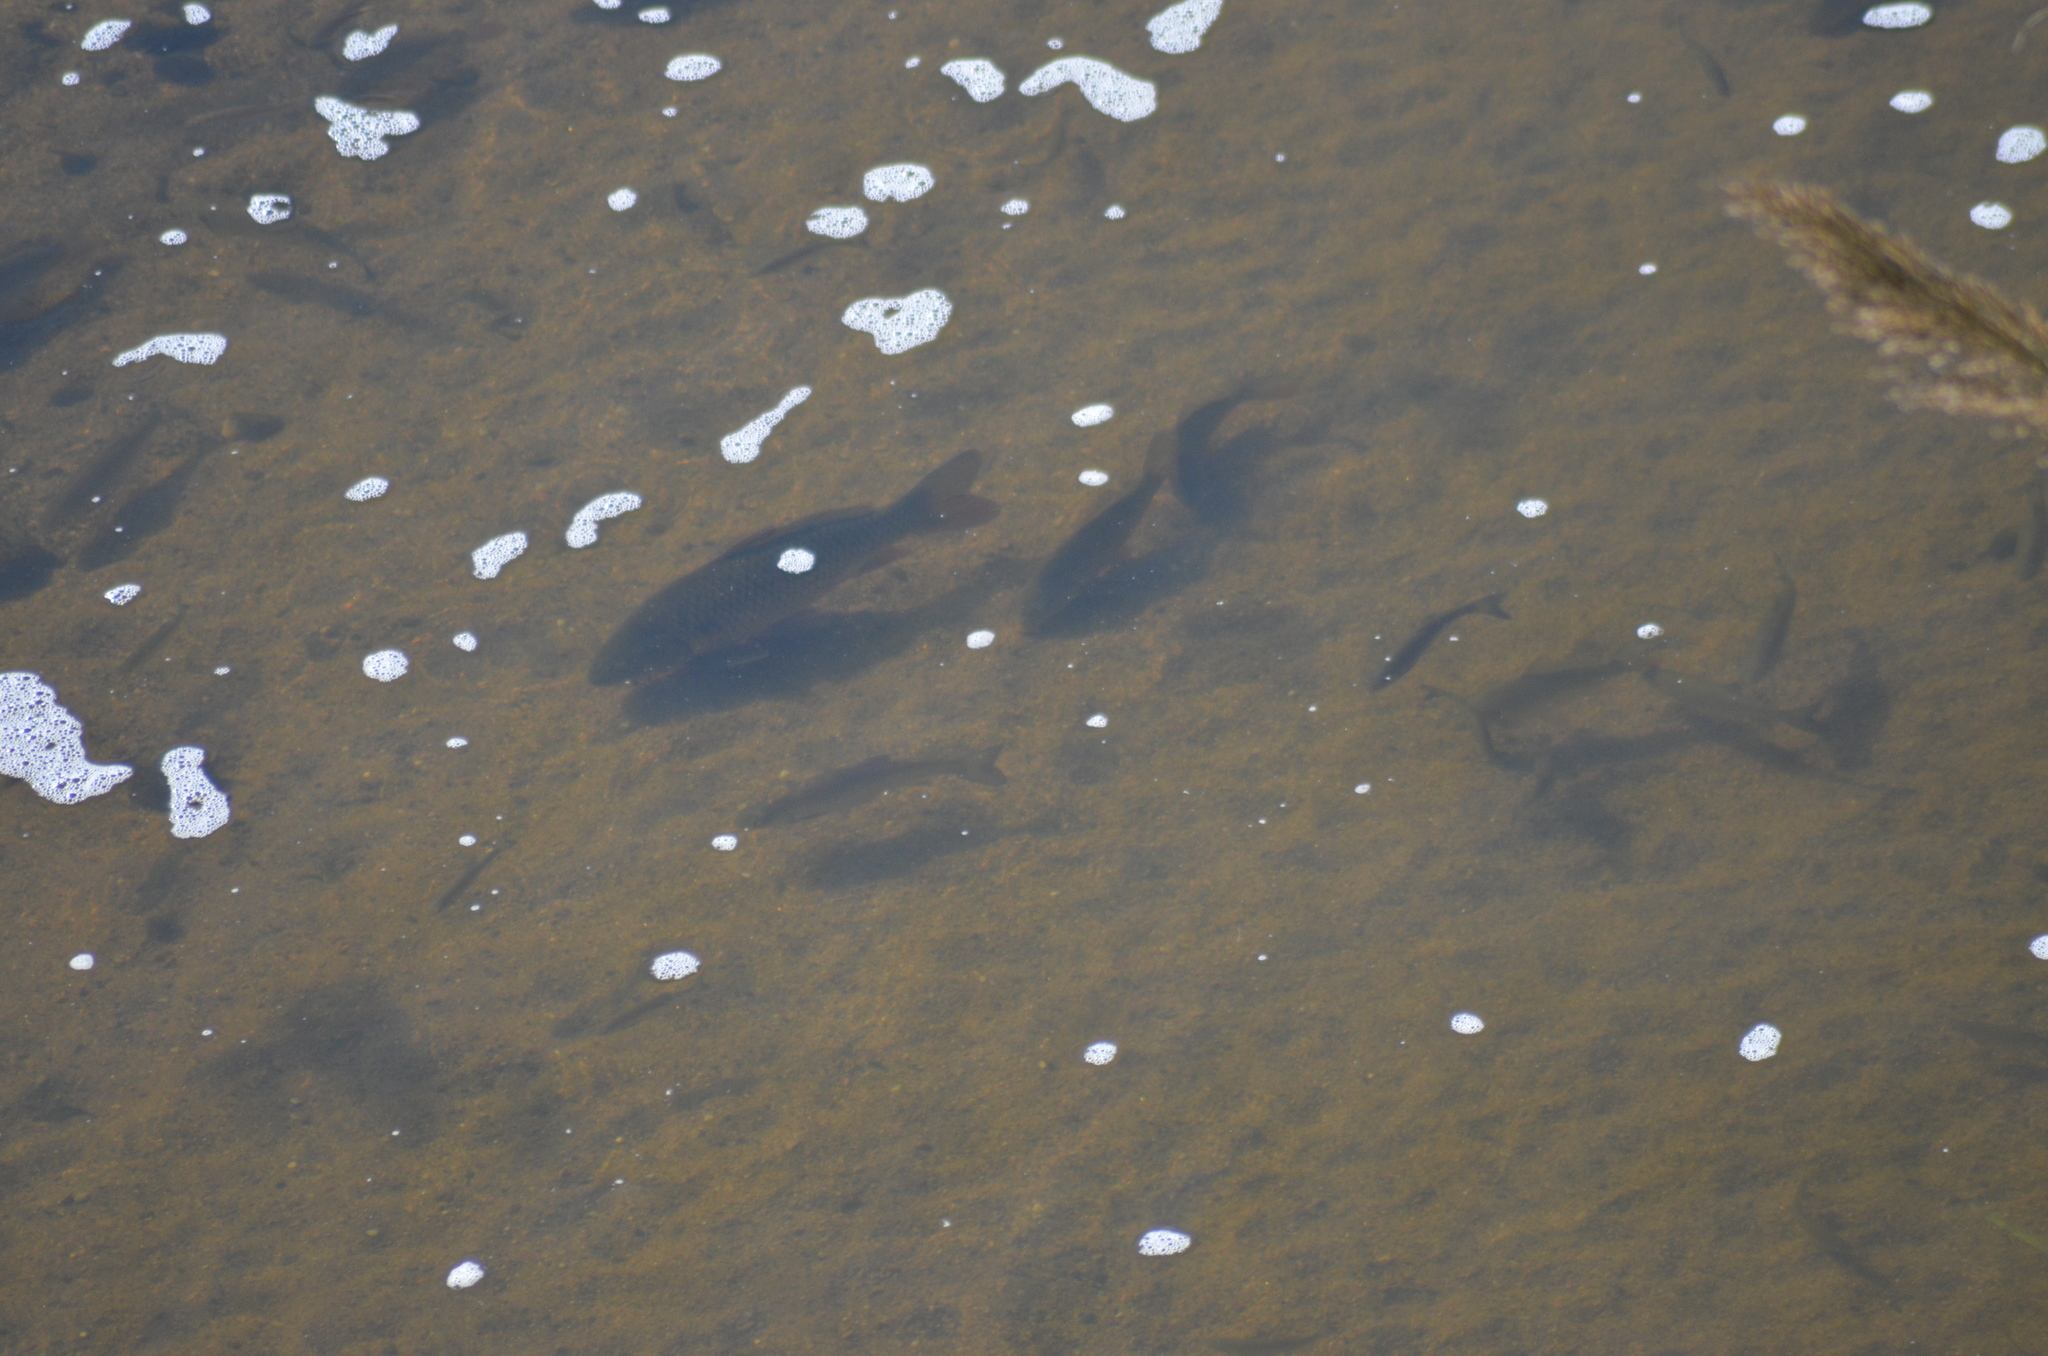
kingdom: Animalia
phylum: Chordata
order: Cypriniformes
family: Cyprinidae
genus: Cyprinus
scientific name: Cyprinus carpio
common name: Common carp
